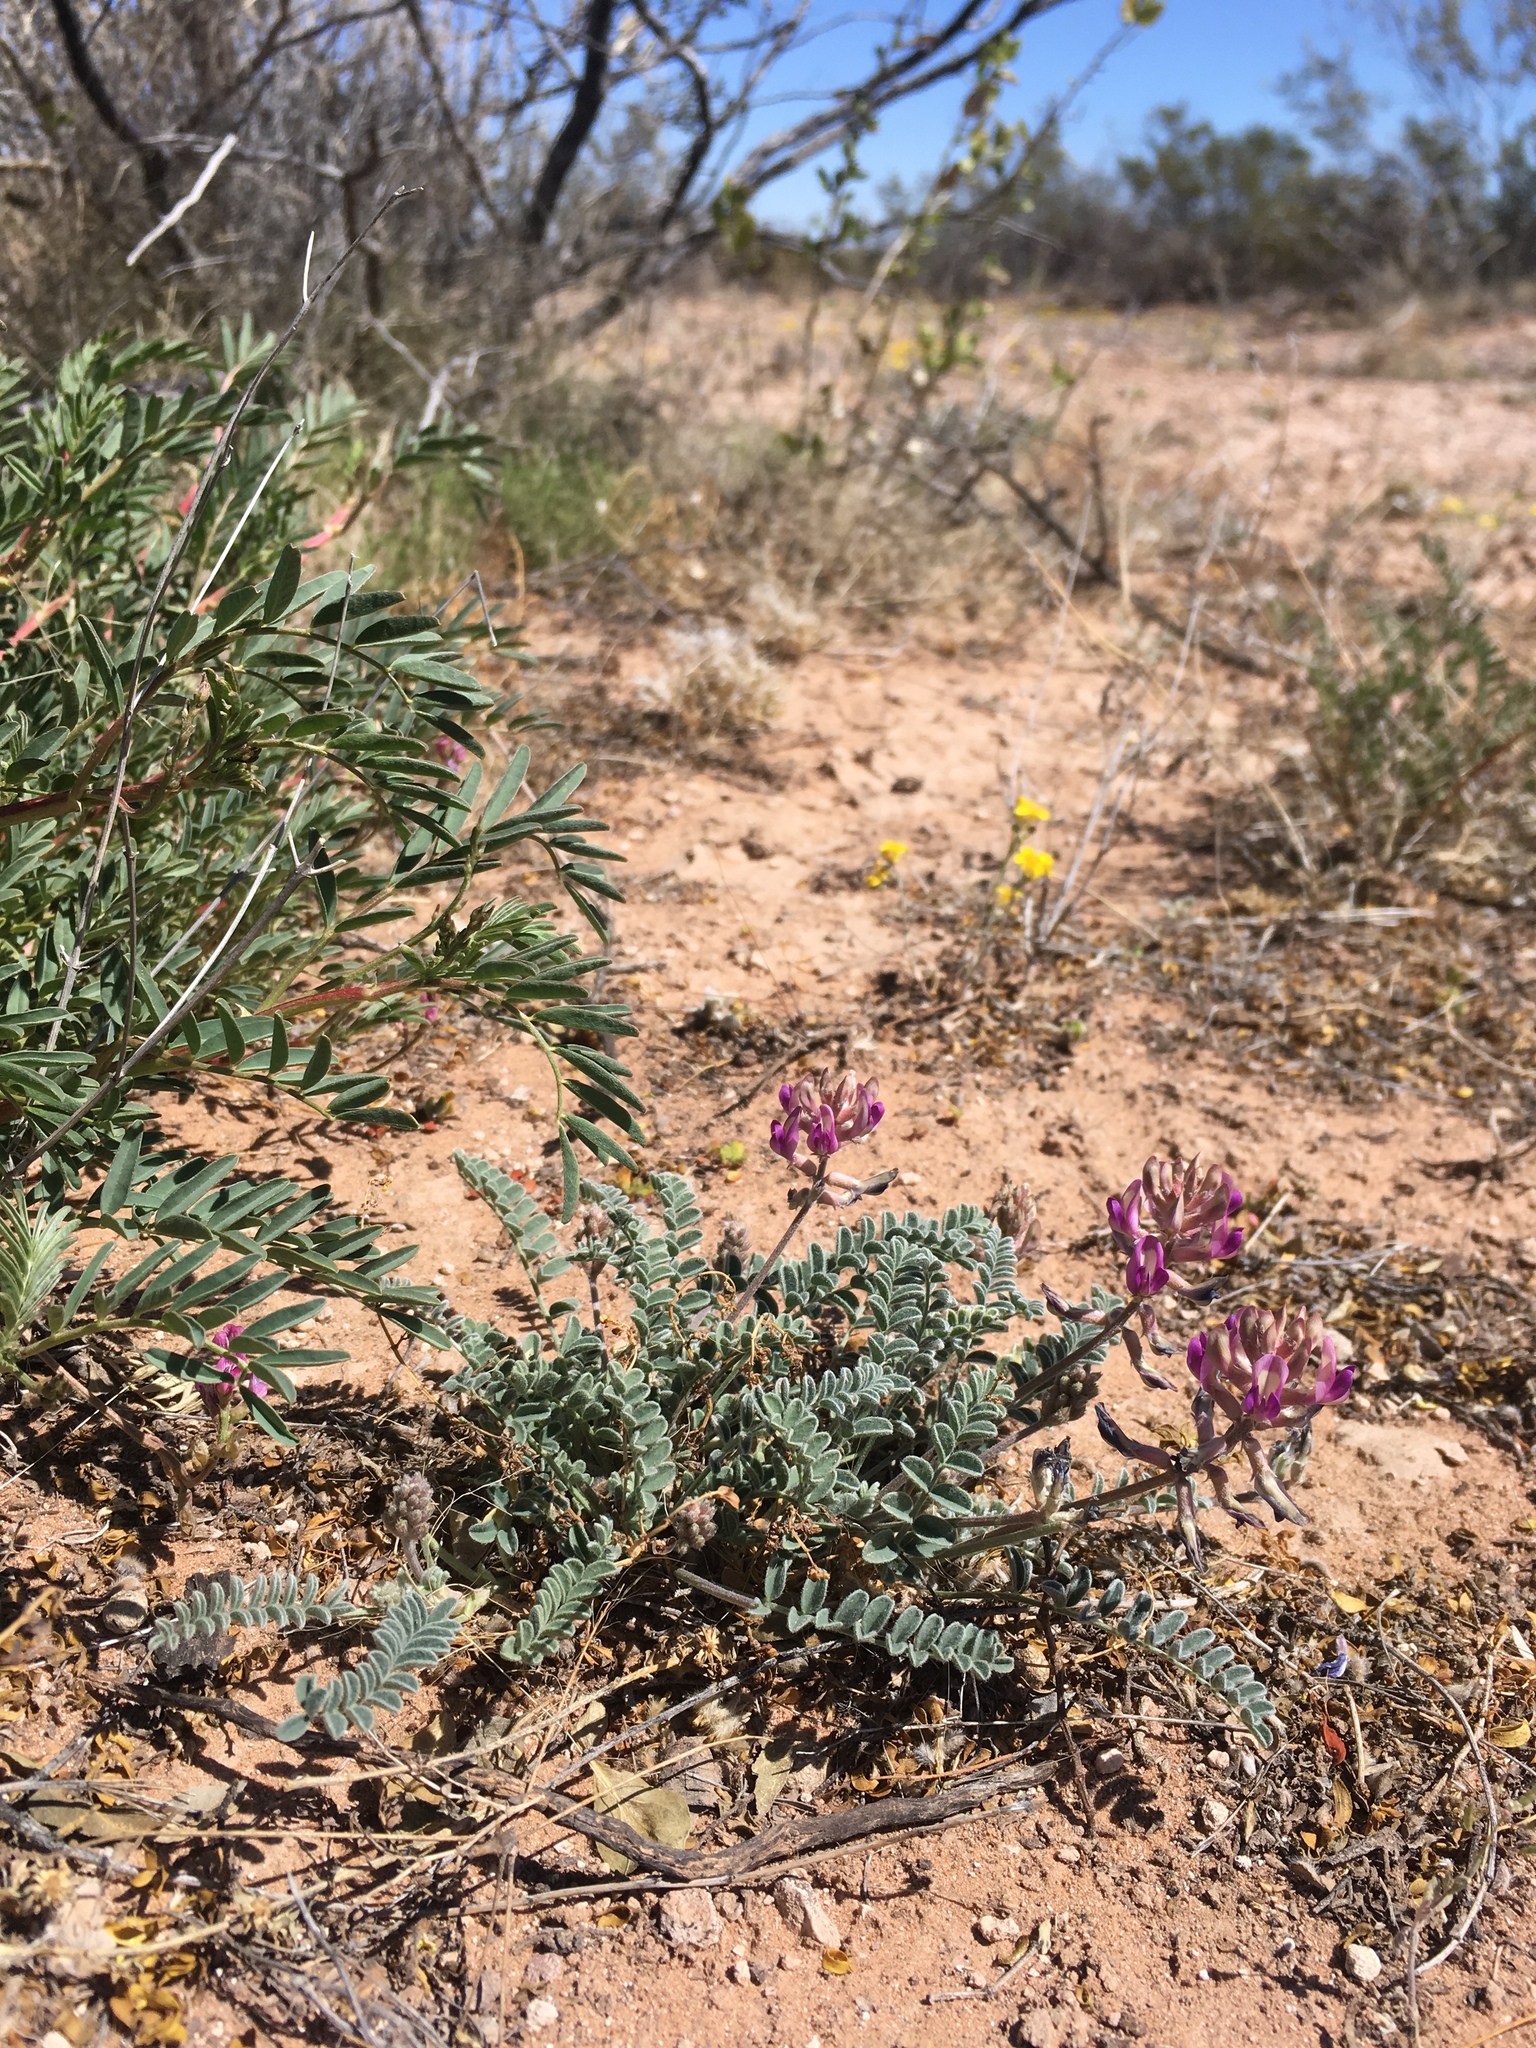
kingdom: Plantae
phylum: Tracheophyta
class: Magnoliopsida
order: Fabales
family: Fabaceae
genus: Astragalus
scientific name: Astragalus tephrodes
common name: Ashen milk-vetch
